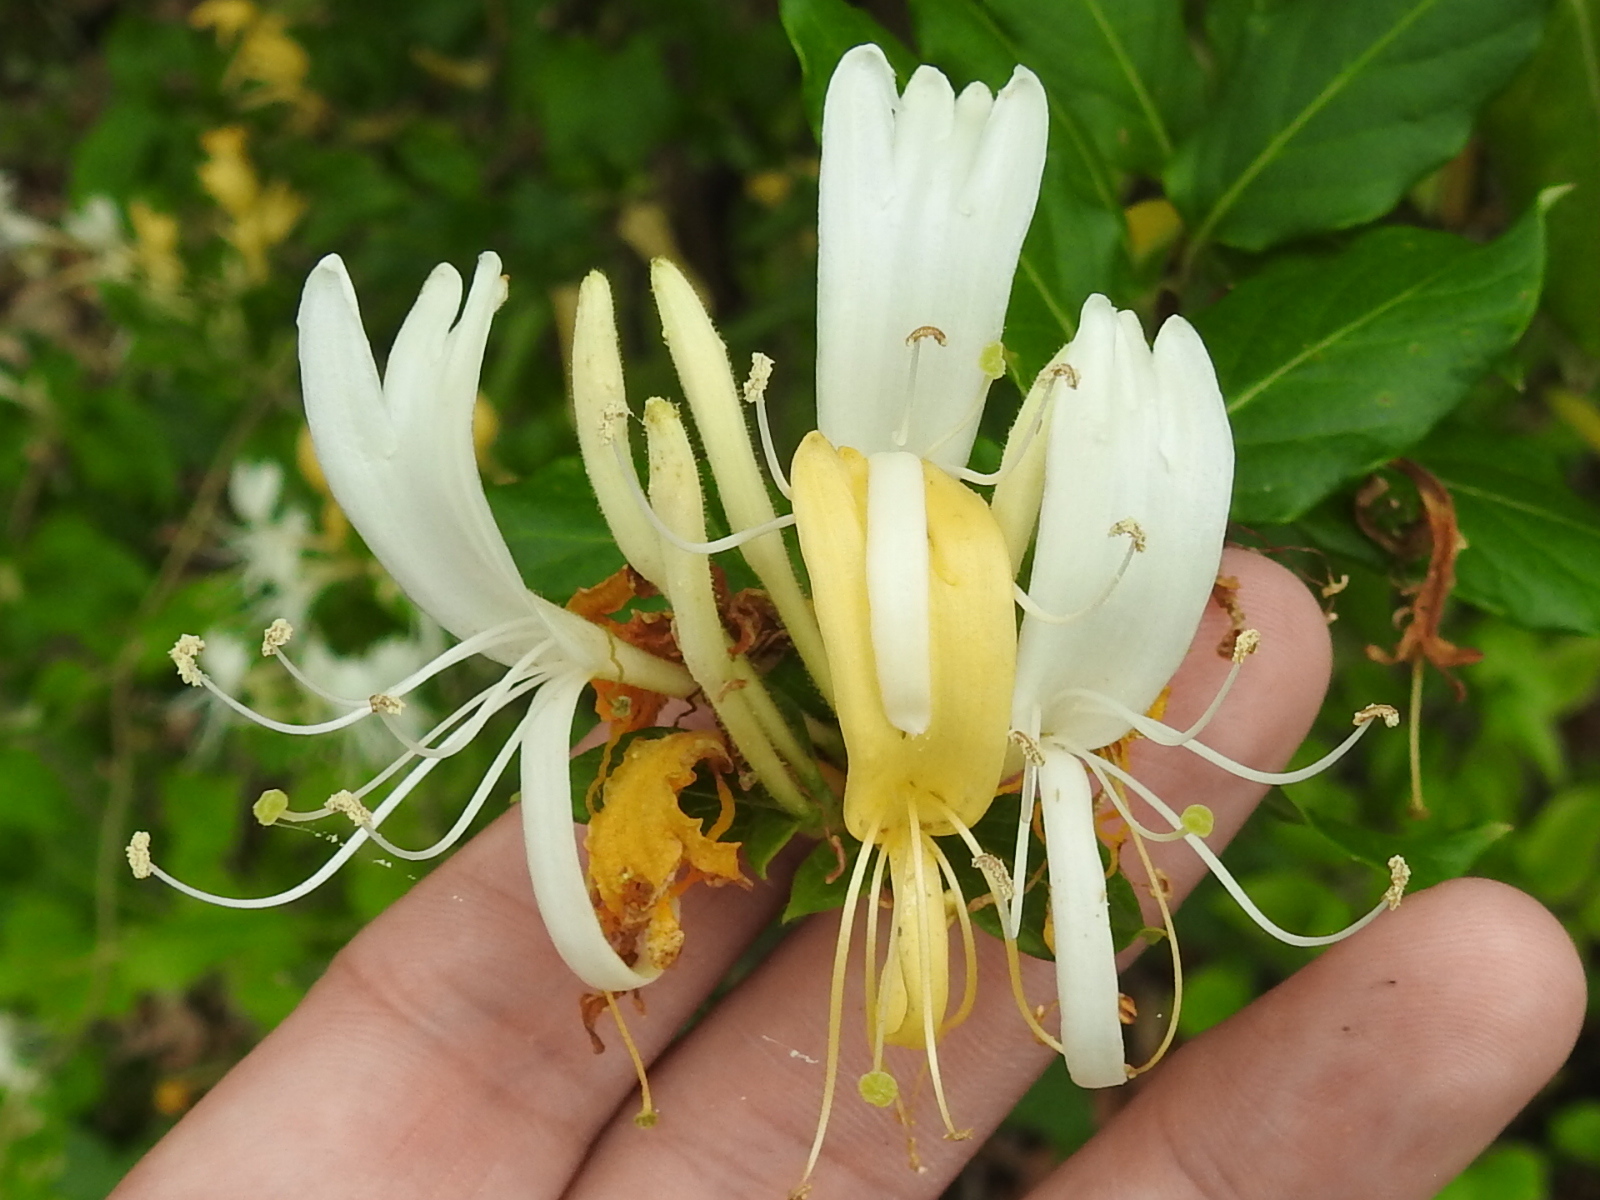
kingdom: Plantae
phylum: Tracheophyta
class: Magnoliopsida
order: Dipsacales
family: Caprifoliaceae
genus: Lonicera
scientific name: Lonicera japonica
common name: Japanese honeysuckle
